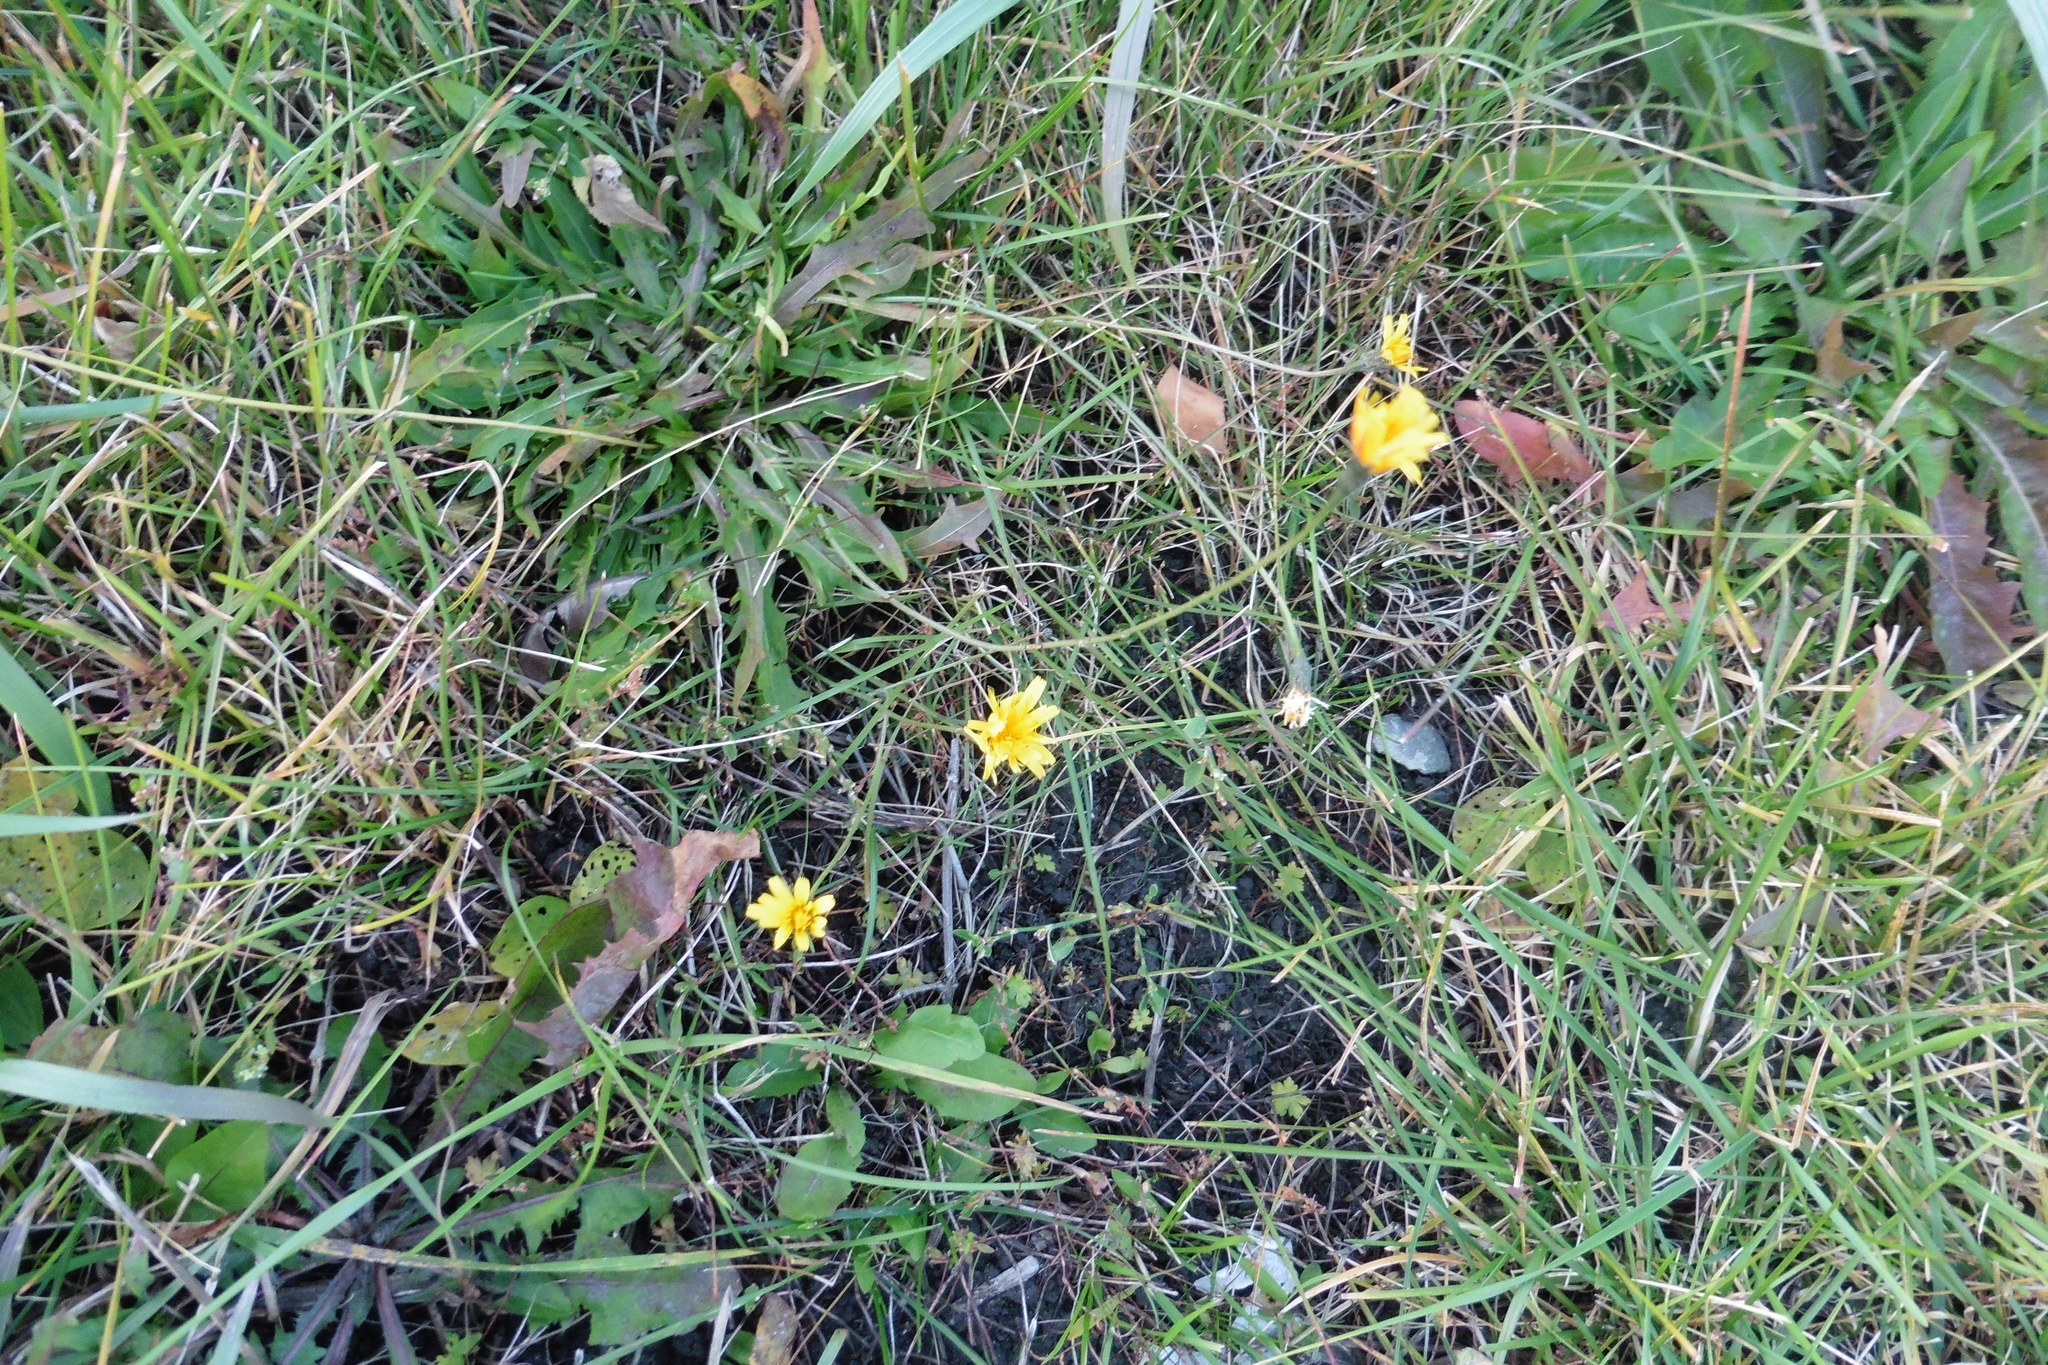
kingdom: Plantae
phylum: Tracheophyta
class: Magnoliopsida
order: Asterales
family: Asteraceae
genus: Scorzoneroides
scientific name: Scorzoneroides autumnalis
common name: Autumn hawkbit
